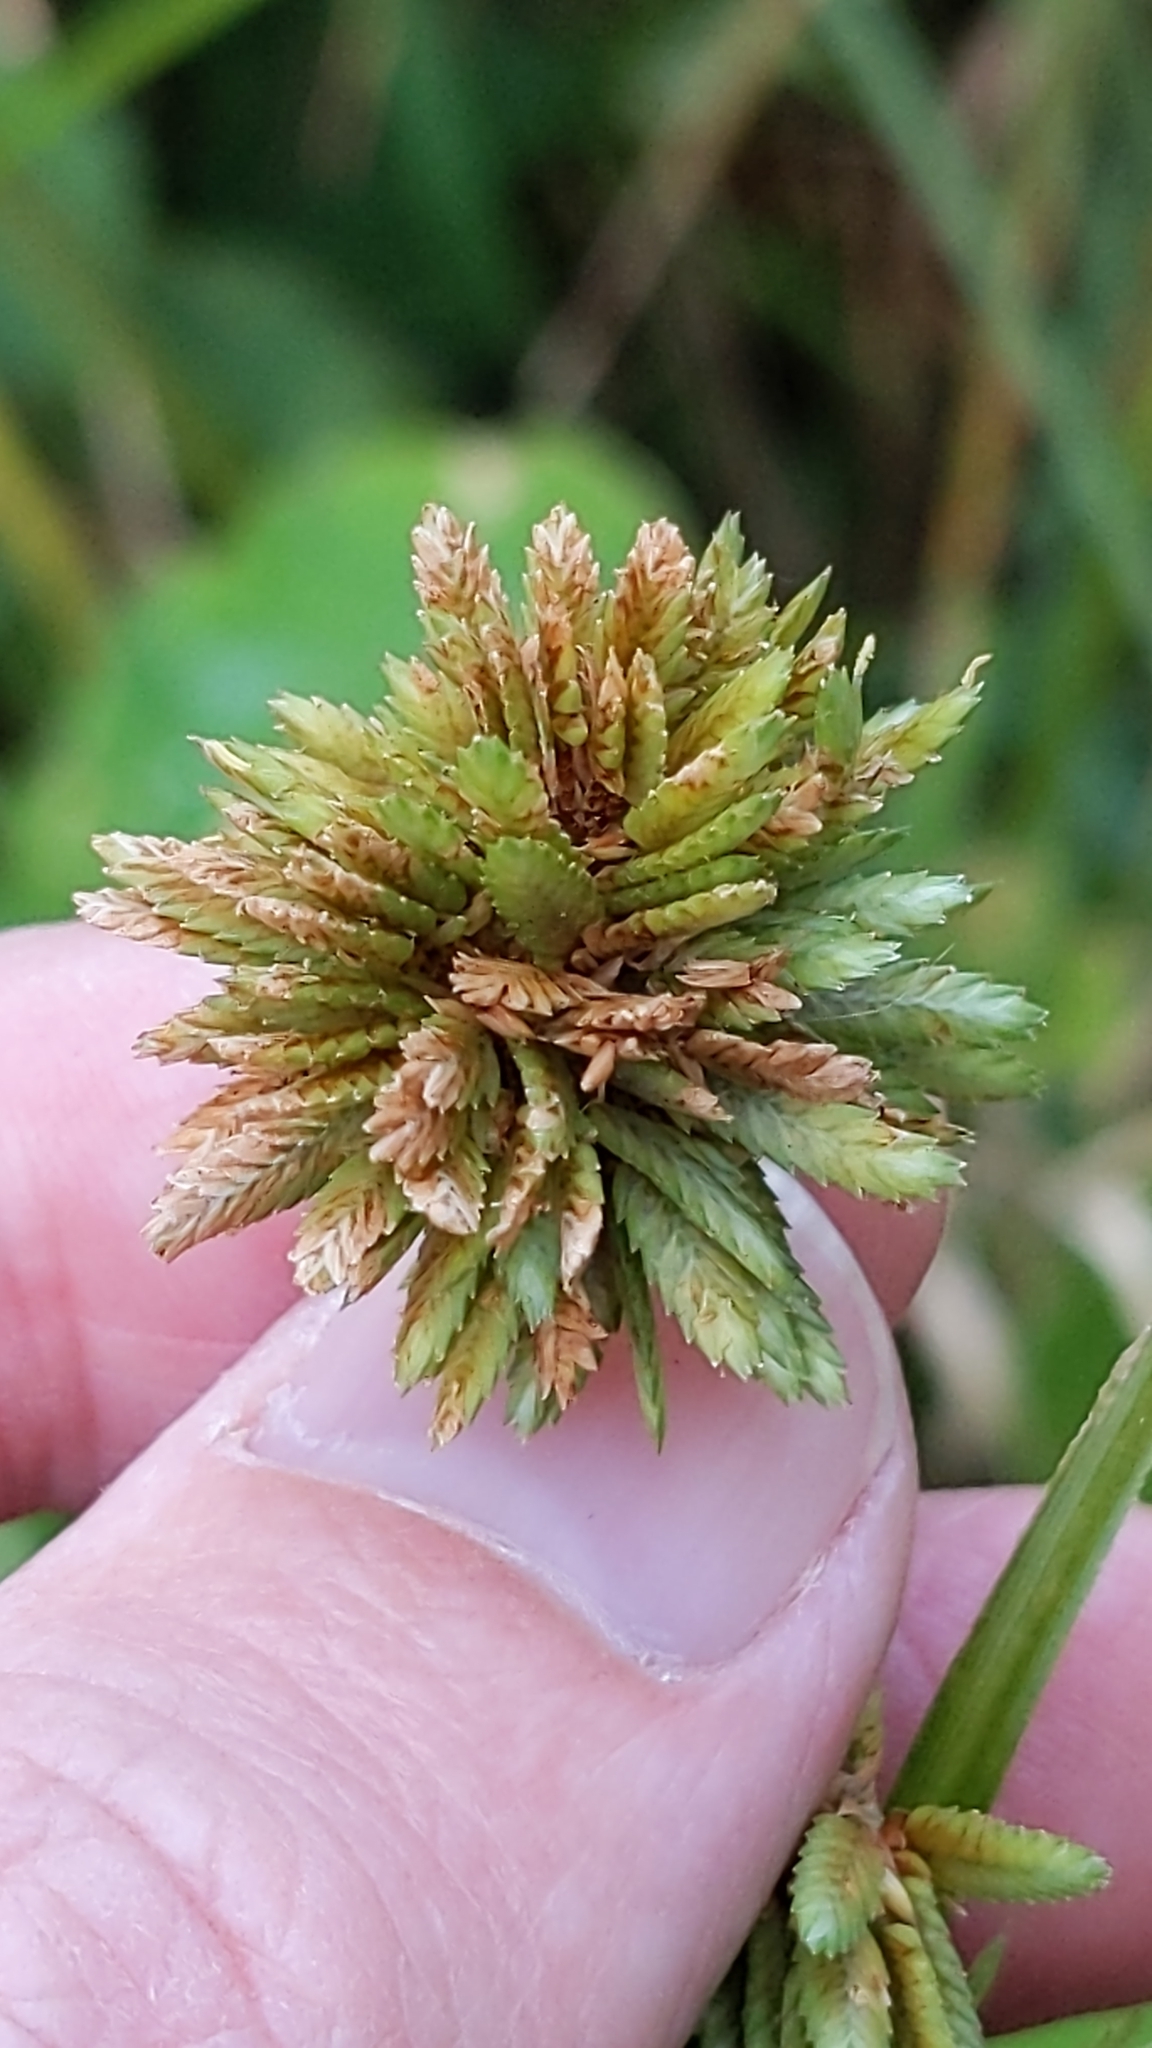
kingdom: Plantae
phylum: Tracheophyta
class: Liliopsida
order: Poales
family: Cyperaceae
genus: Cyperus
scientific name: Cyperus eragrostis
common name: Tall flatsedge
